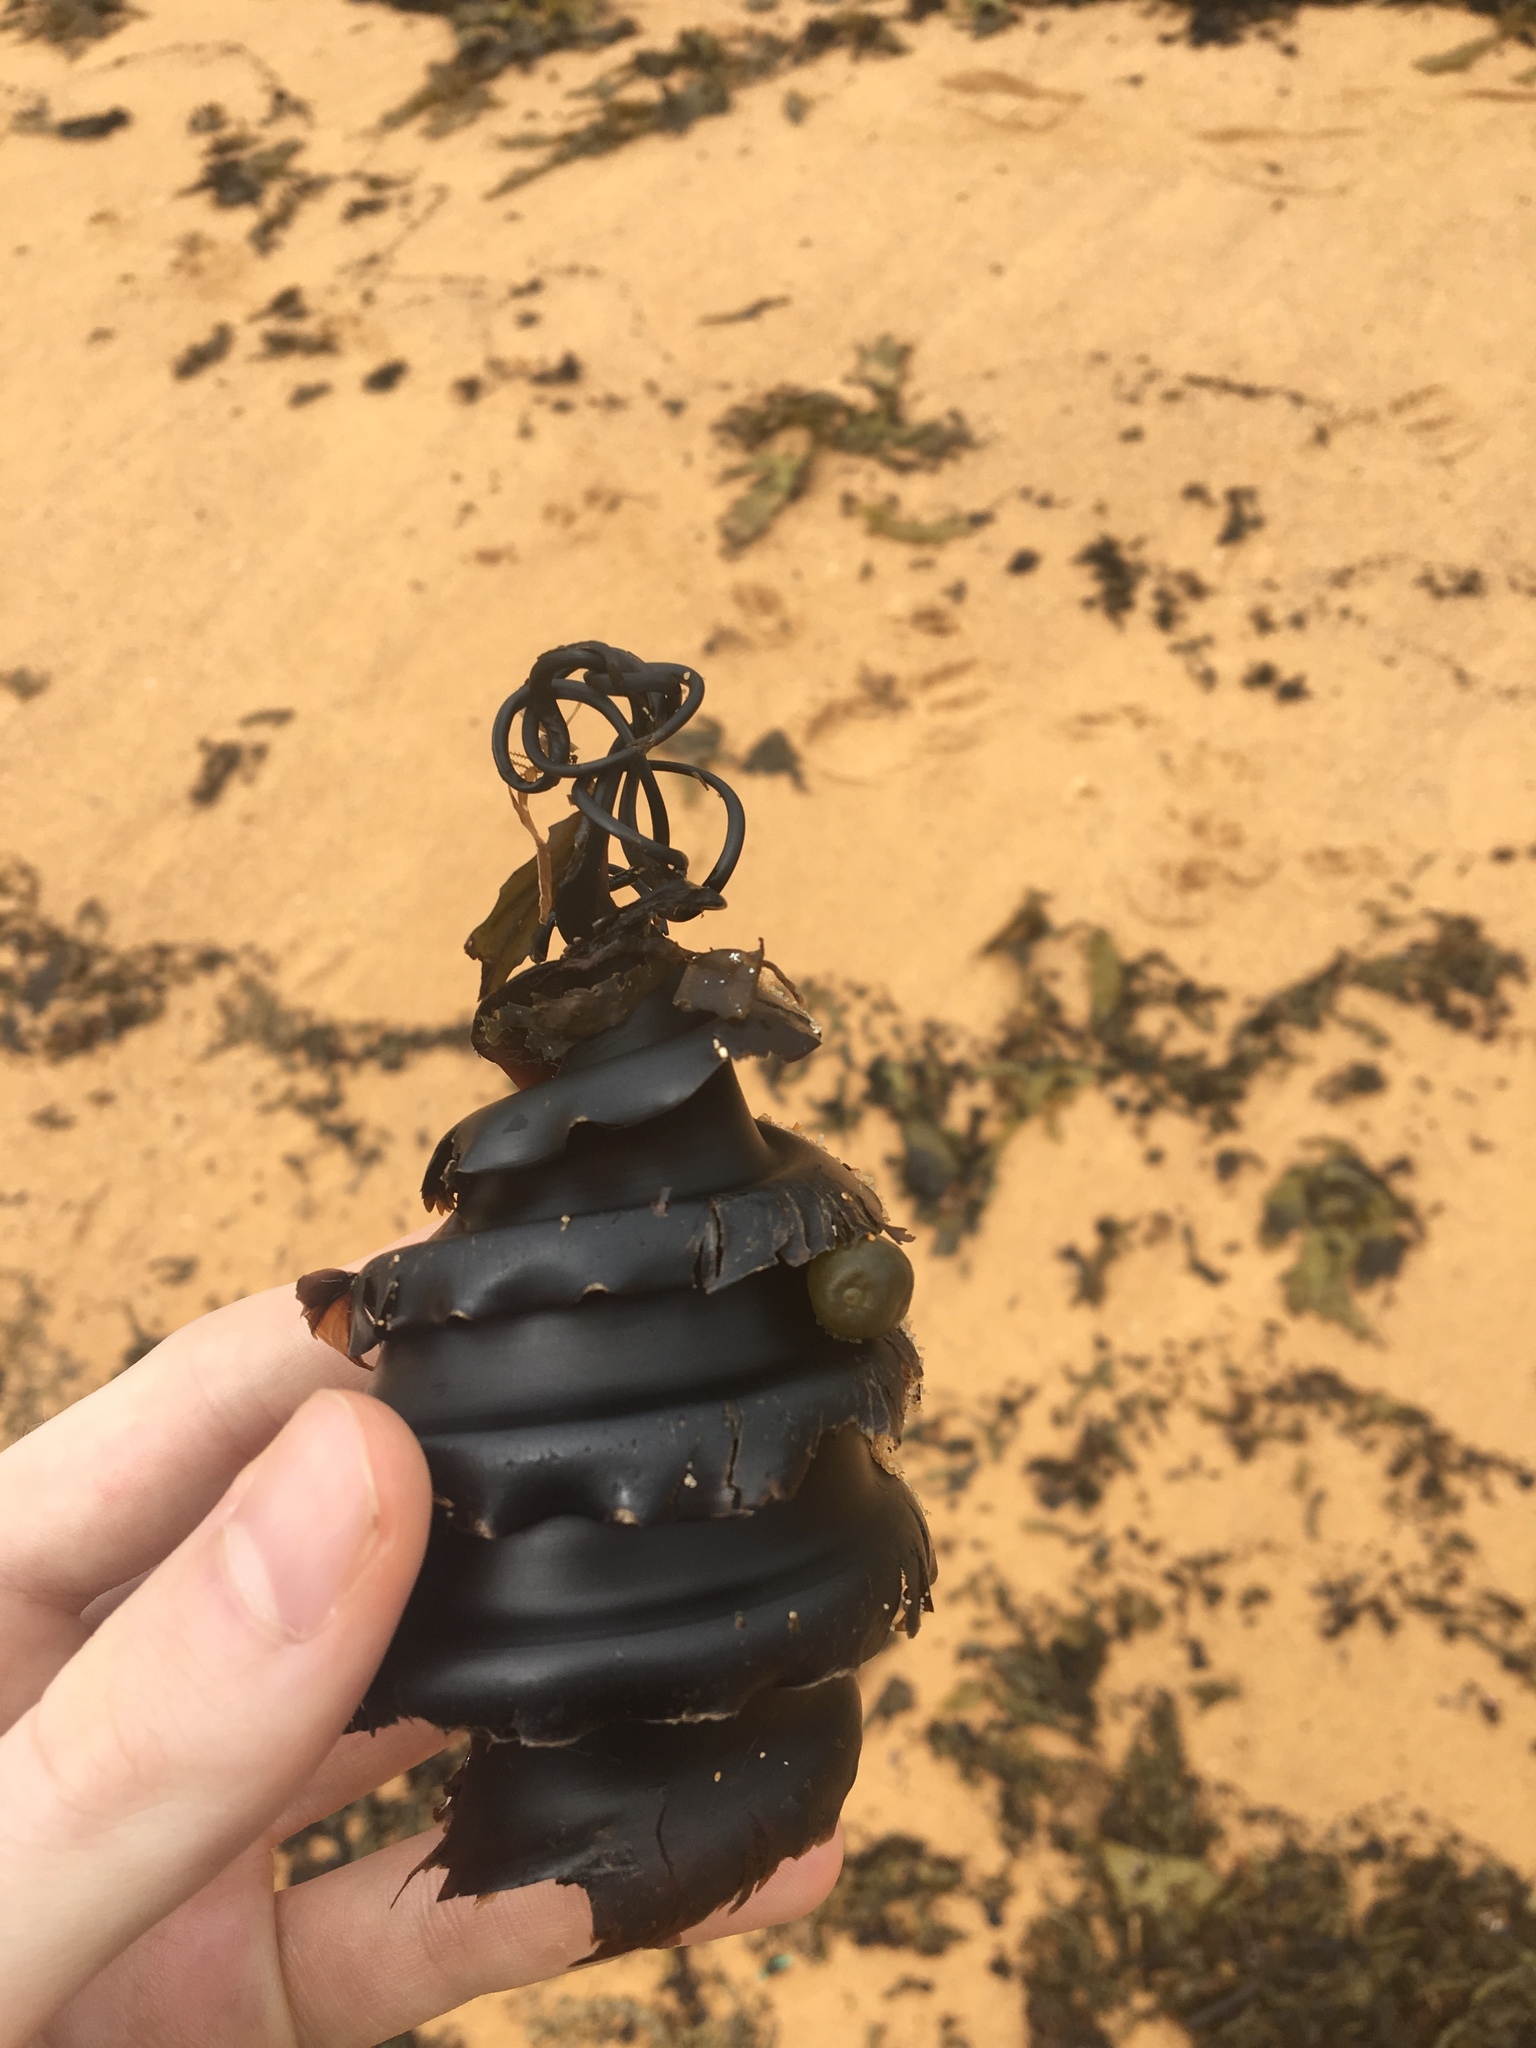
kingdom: Animalia
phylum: Chordata
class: Elasmobranchii
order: Heterodontiformes
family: Heterodontidae
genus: Heterodontus
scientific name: Heterodontus galeatus
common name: Crested bullhead shark
